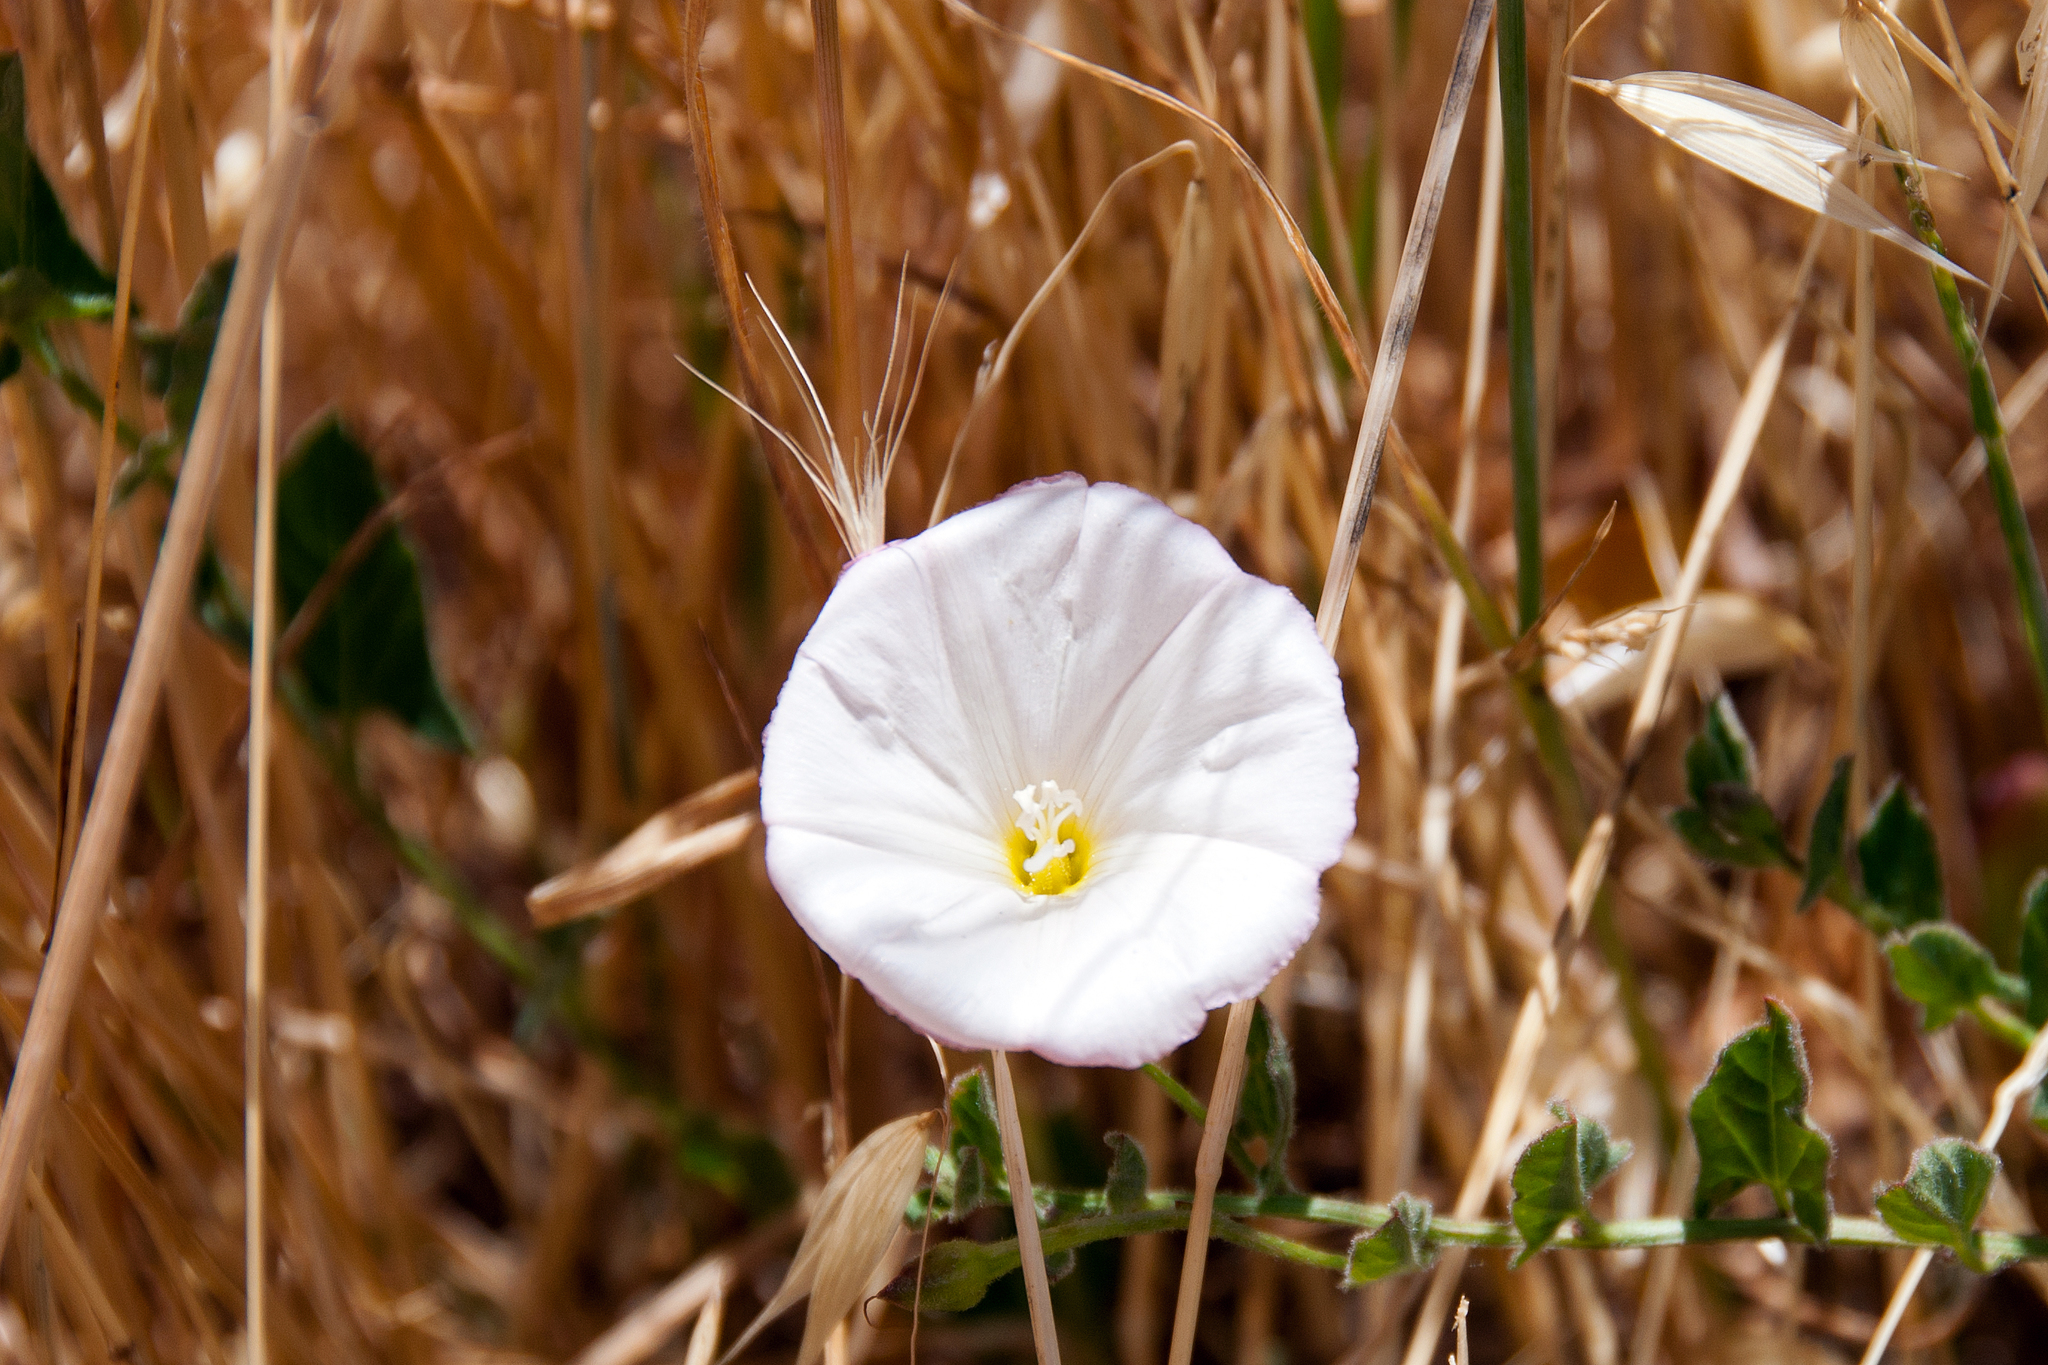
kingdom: Plantae
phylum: Tracheophyta
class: Magnoliopsida
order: Solanales
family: Convolvulaceae
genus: Convolvulus
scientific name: Convolvulus arvensis
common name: Field bindweed
